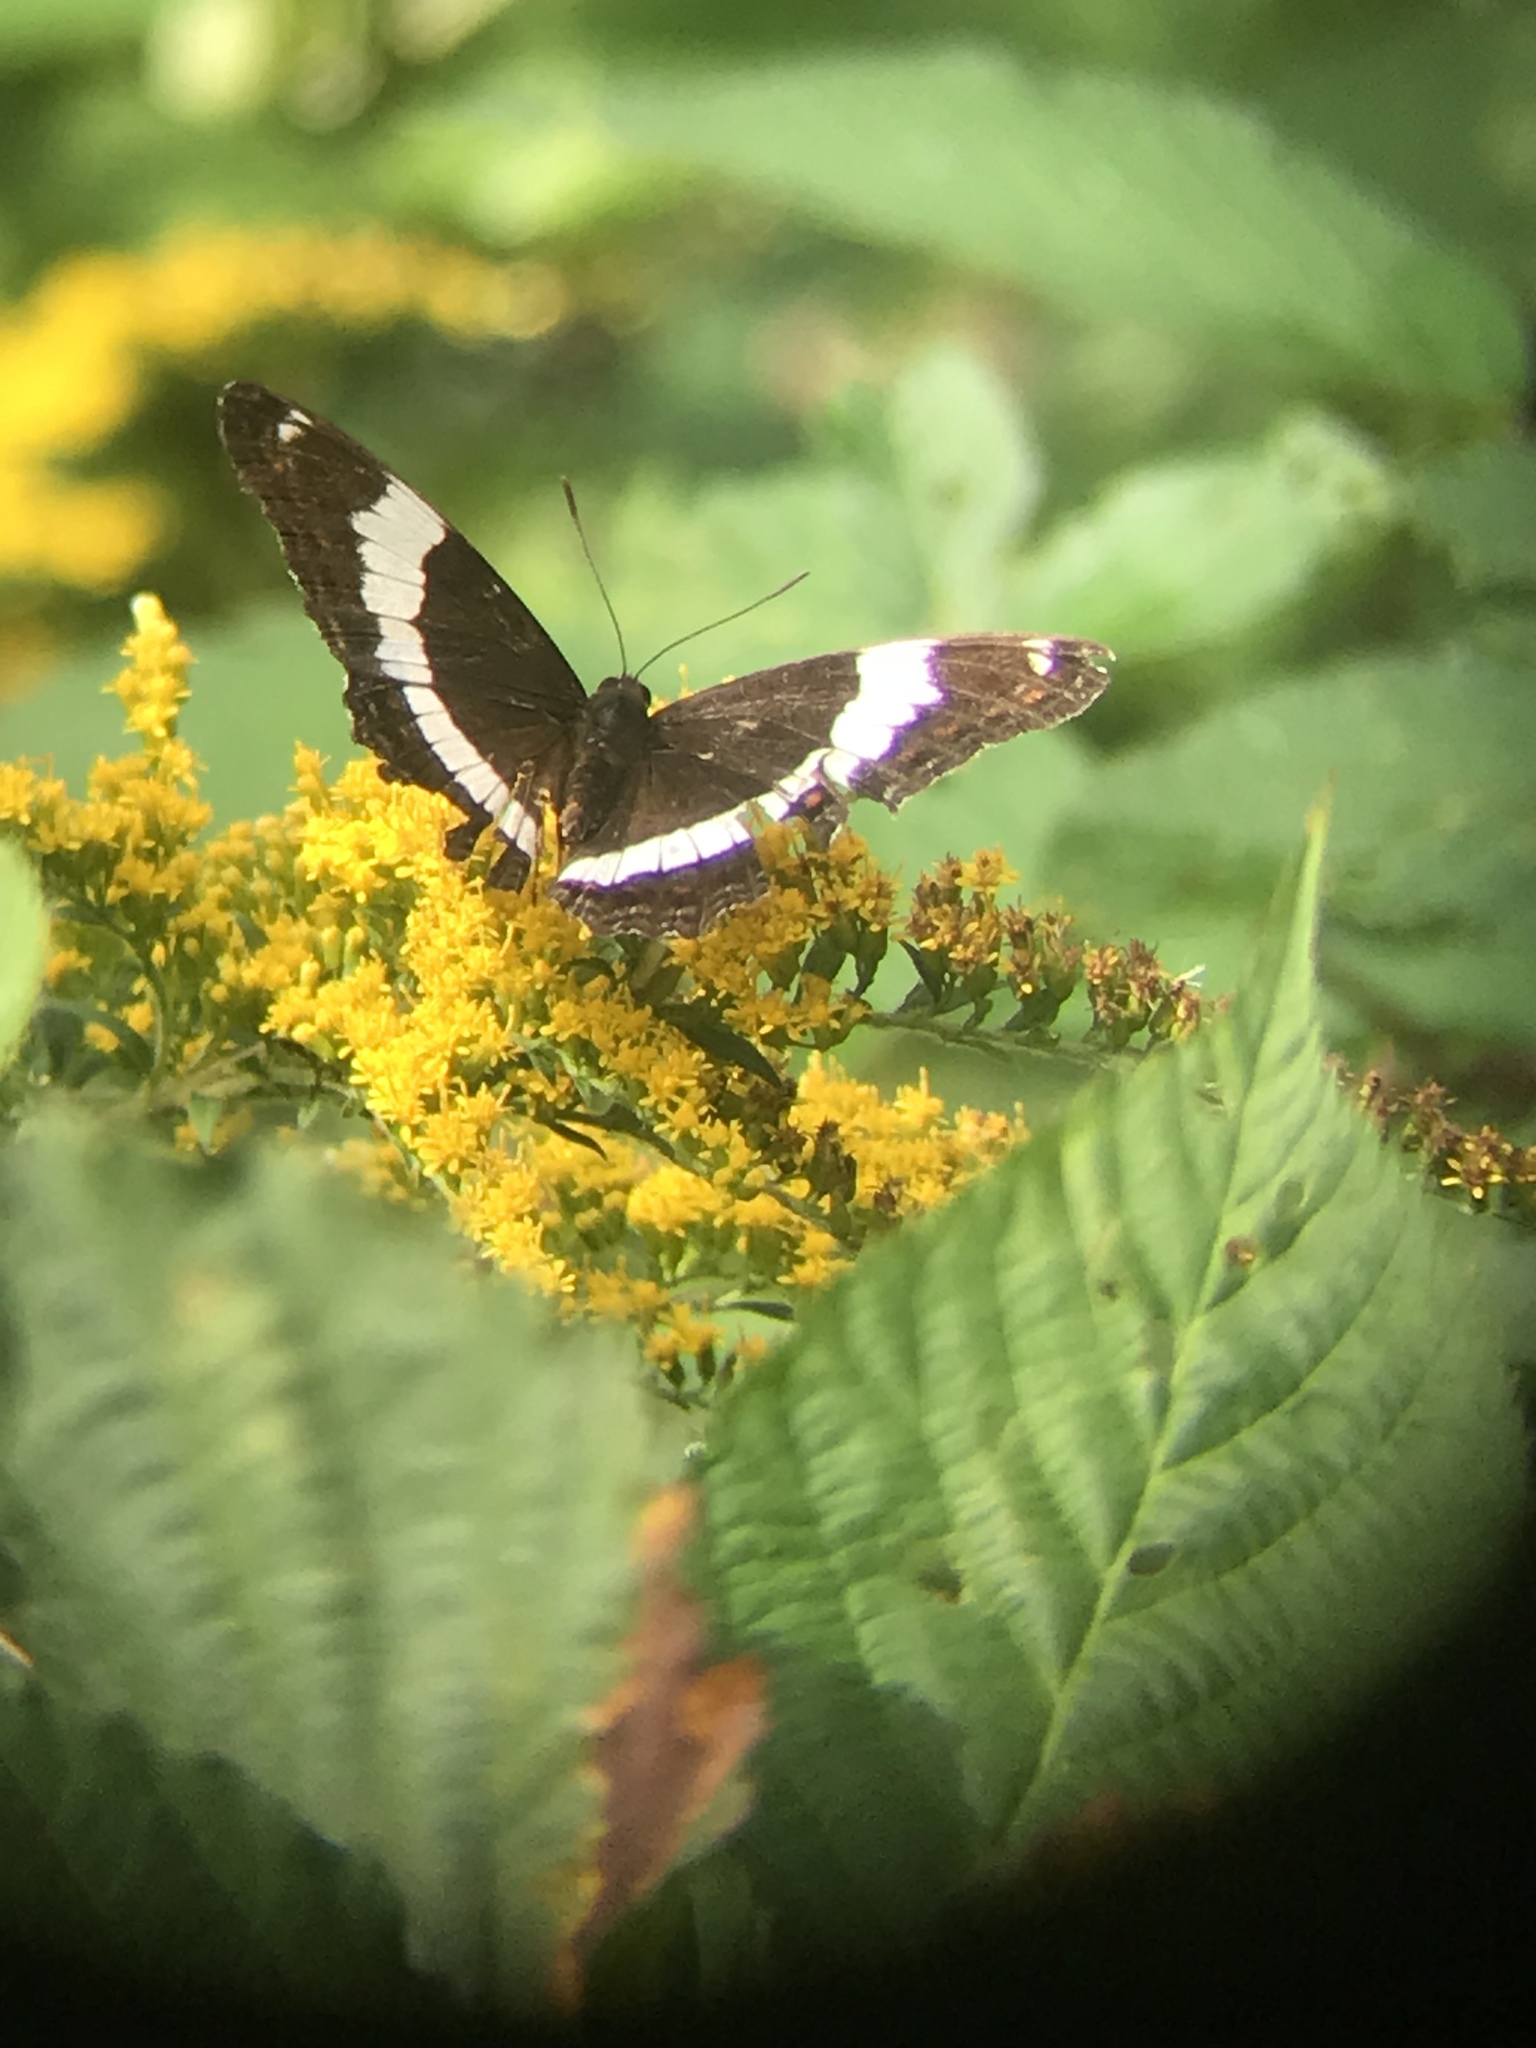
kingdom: Animalia
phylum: Arthropoda
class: Insecta
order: Lepidoptera
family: Nymphalidae
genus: Limenitis
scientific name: Limenitis arthemis
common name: Red-spotted admiral
